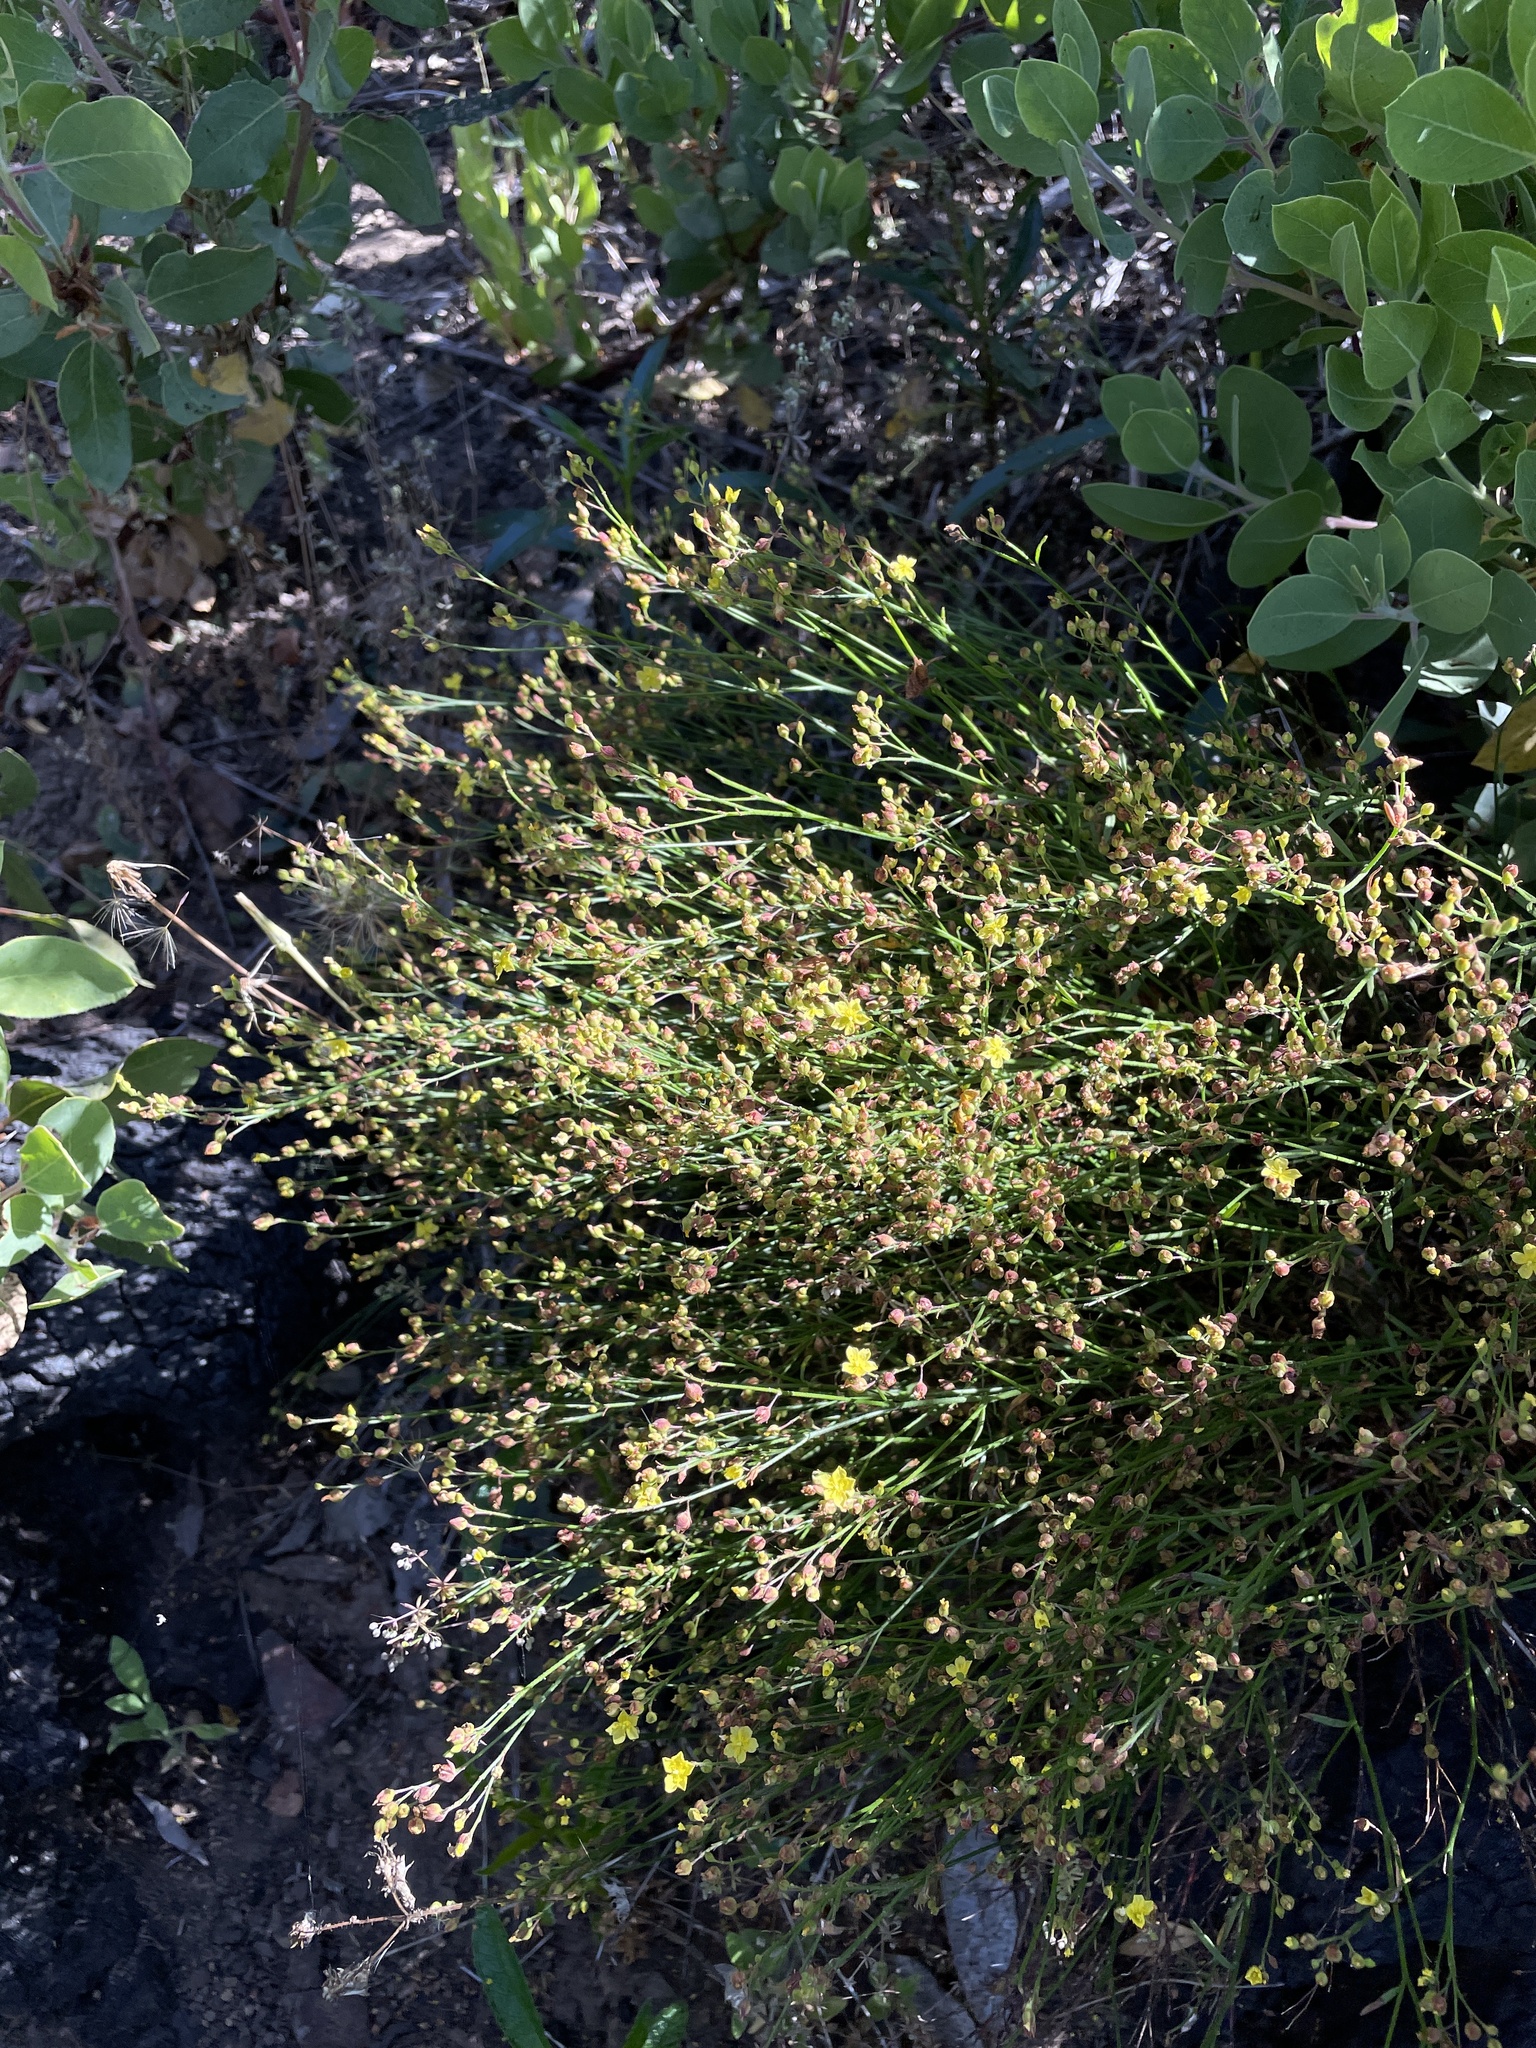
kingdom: Plantae
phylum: Tracheophyta
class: Magnoliopsida
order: Malvales
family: Cistaceae
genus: Crocanthemum
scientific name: Crocanthemum scoparium
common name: Broom-rose
